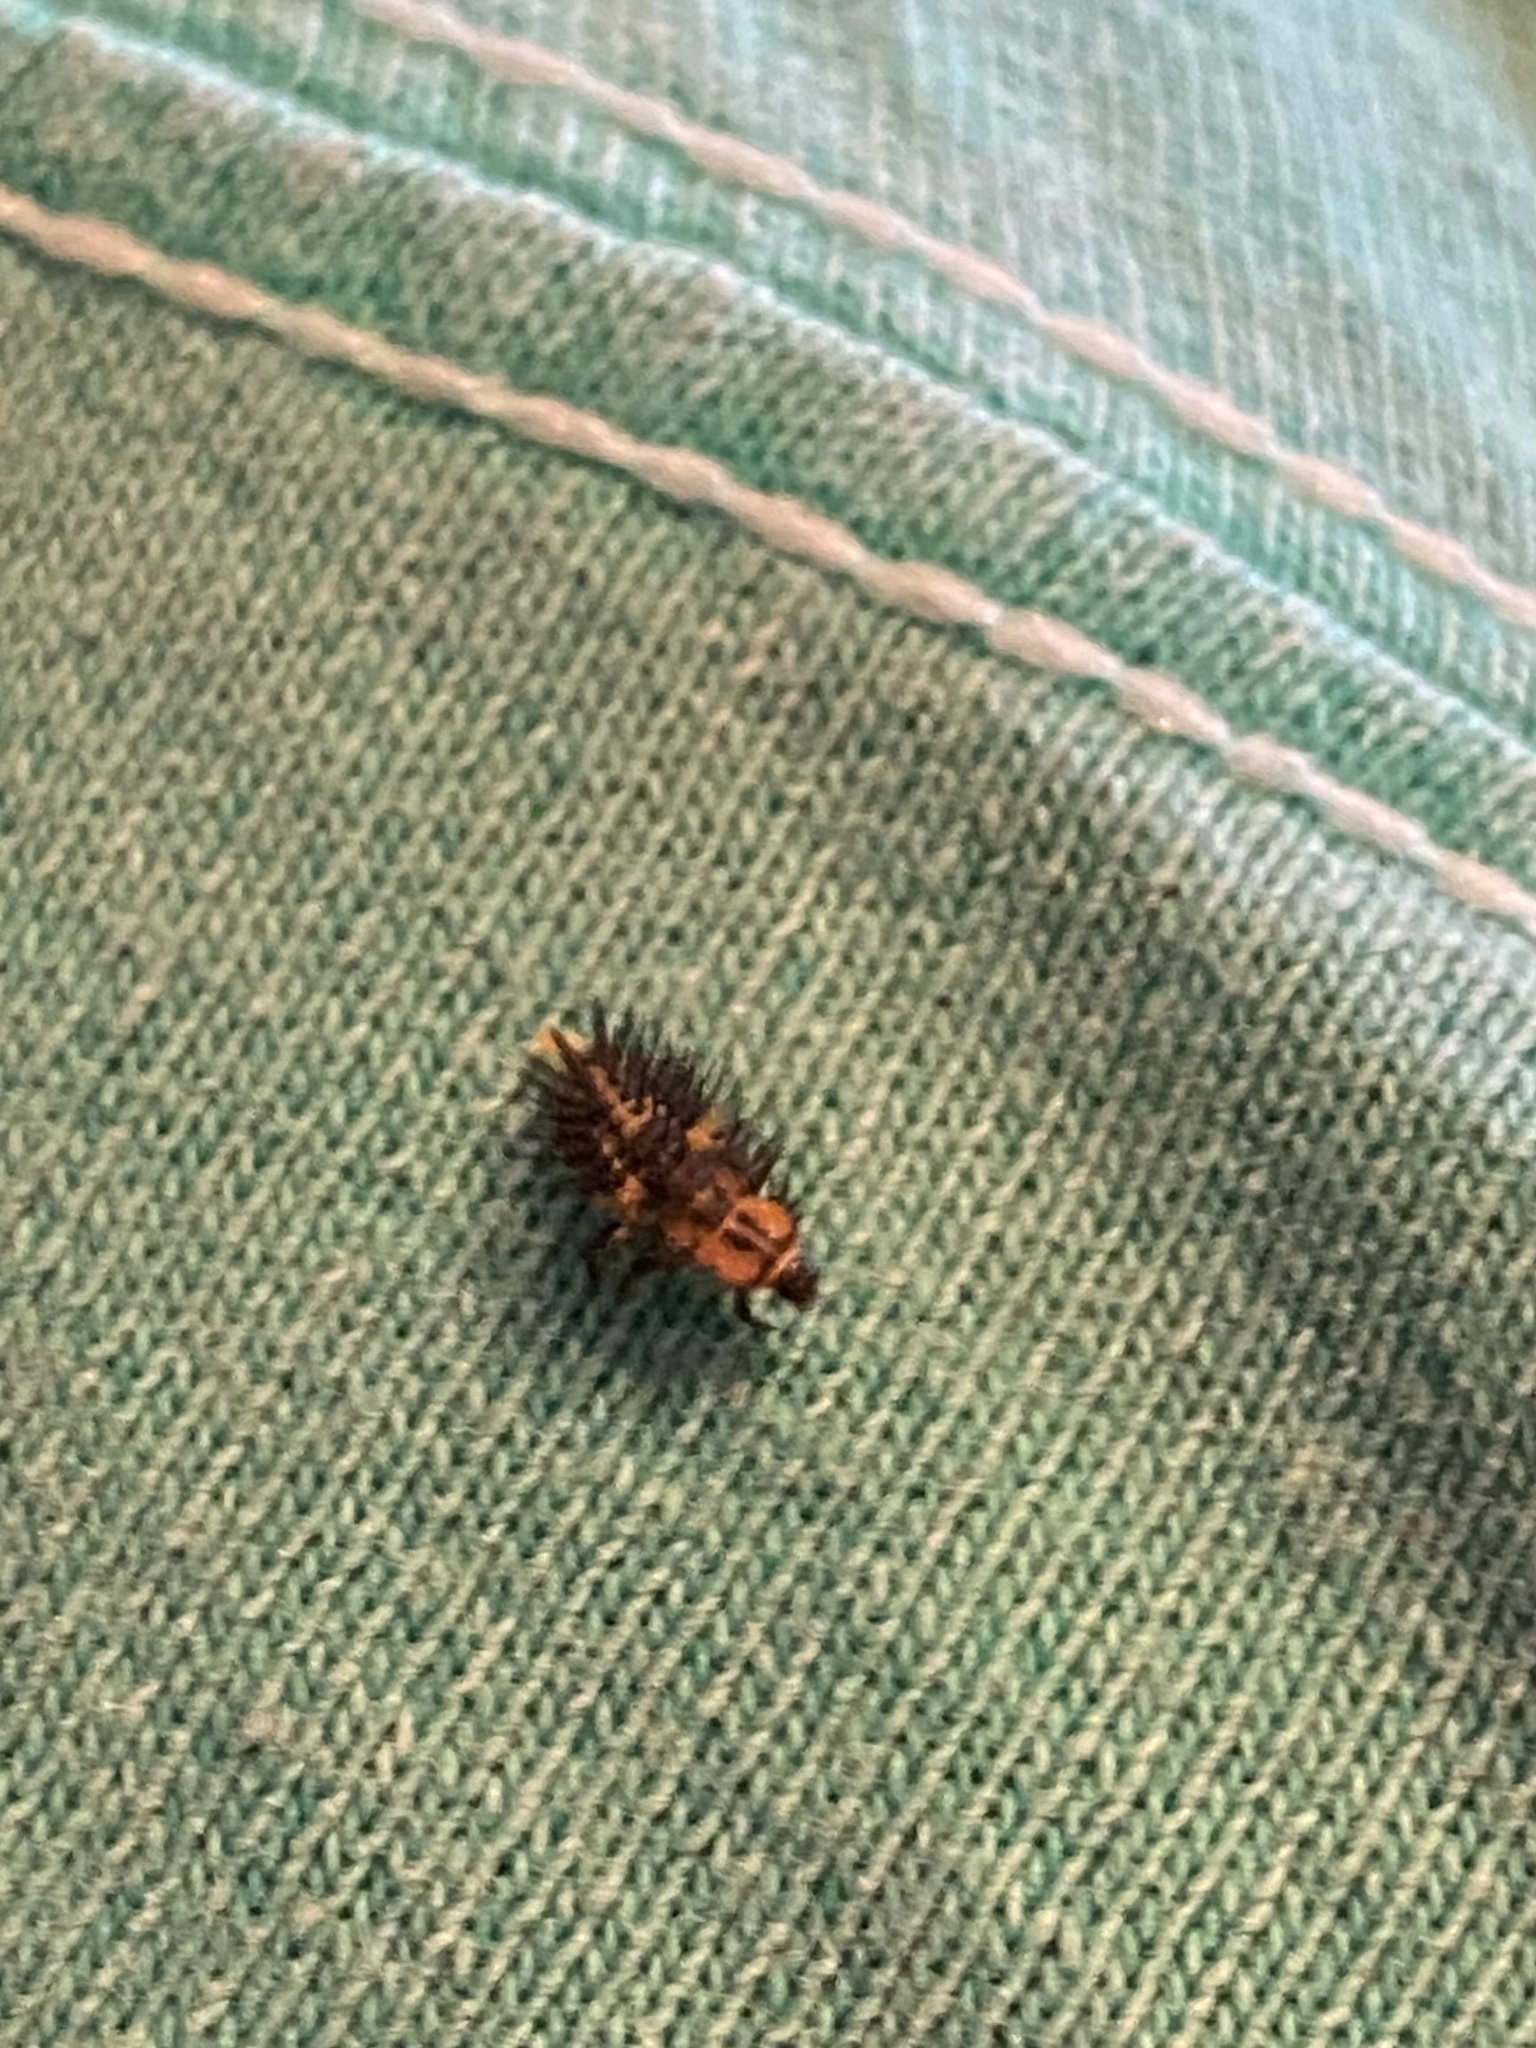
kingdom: Animalia
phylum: Arthropoda
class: Insecta
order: Coleoptera
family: Coccinellidae
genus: Axion
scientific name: Axion plagiatum
